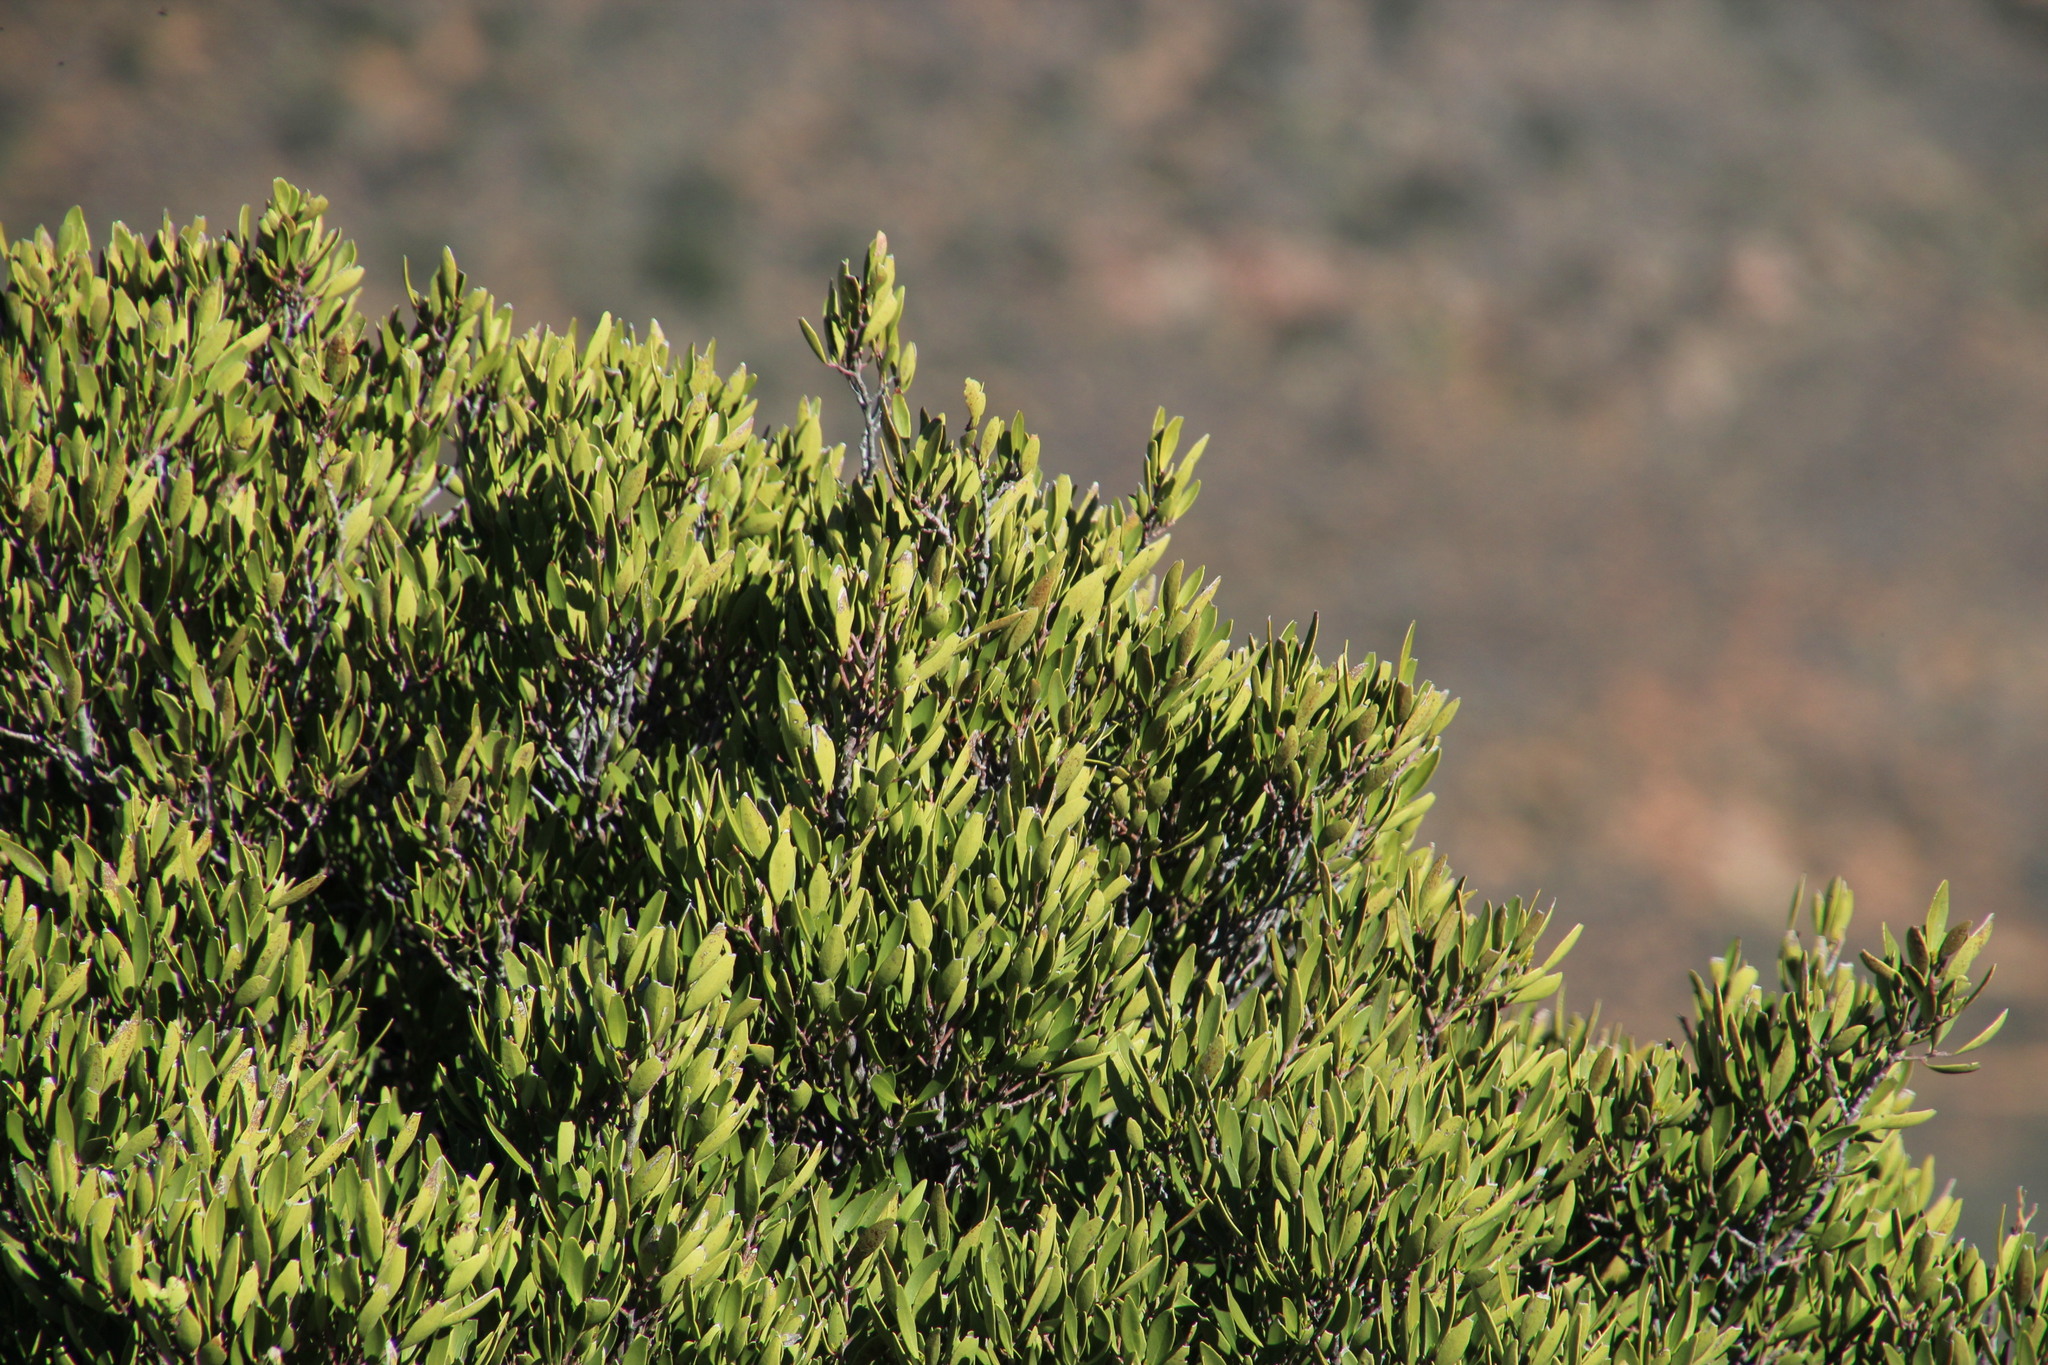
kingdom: Plantae
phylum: Tracheophyta
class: Magnoliopsida
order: Celastrales
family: Celastraceae
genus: Gymnosporia
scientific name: Gymnosporia laurina
